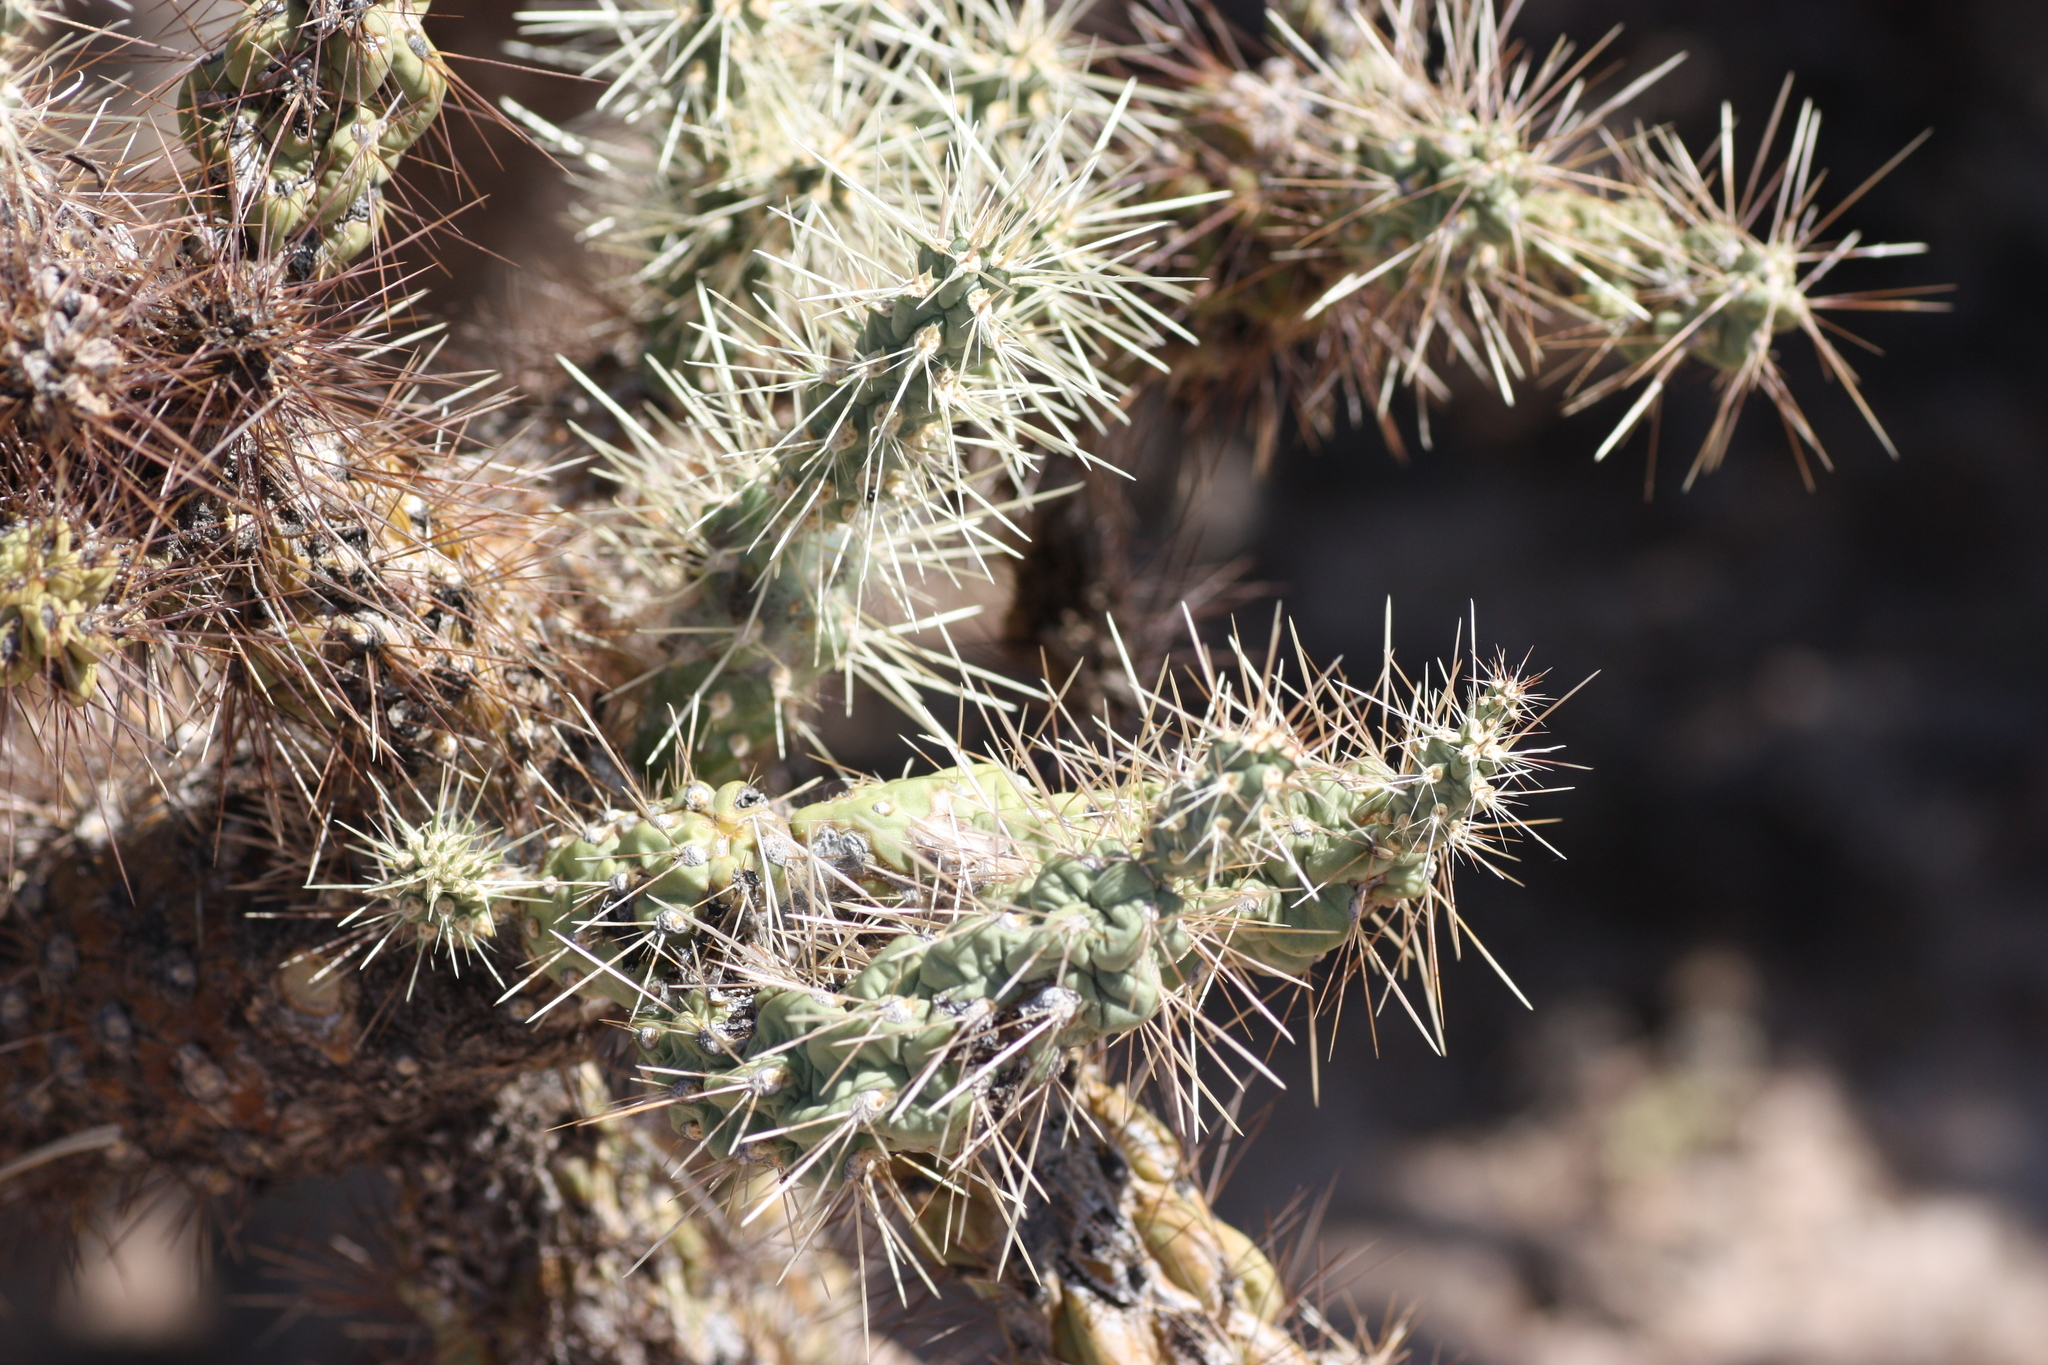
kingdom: Plantae
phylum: Tracheophyta
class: Magnoliopsida
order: Caryophyllales
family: Cactaceae
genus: Cylindropuntia
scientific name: Cylindropuntia fulgida
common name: Jumping cholla
